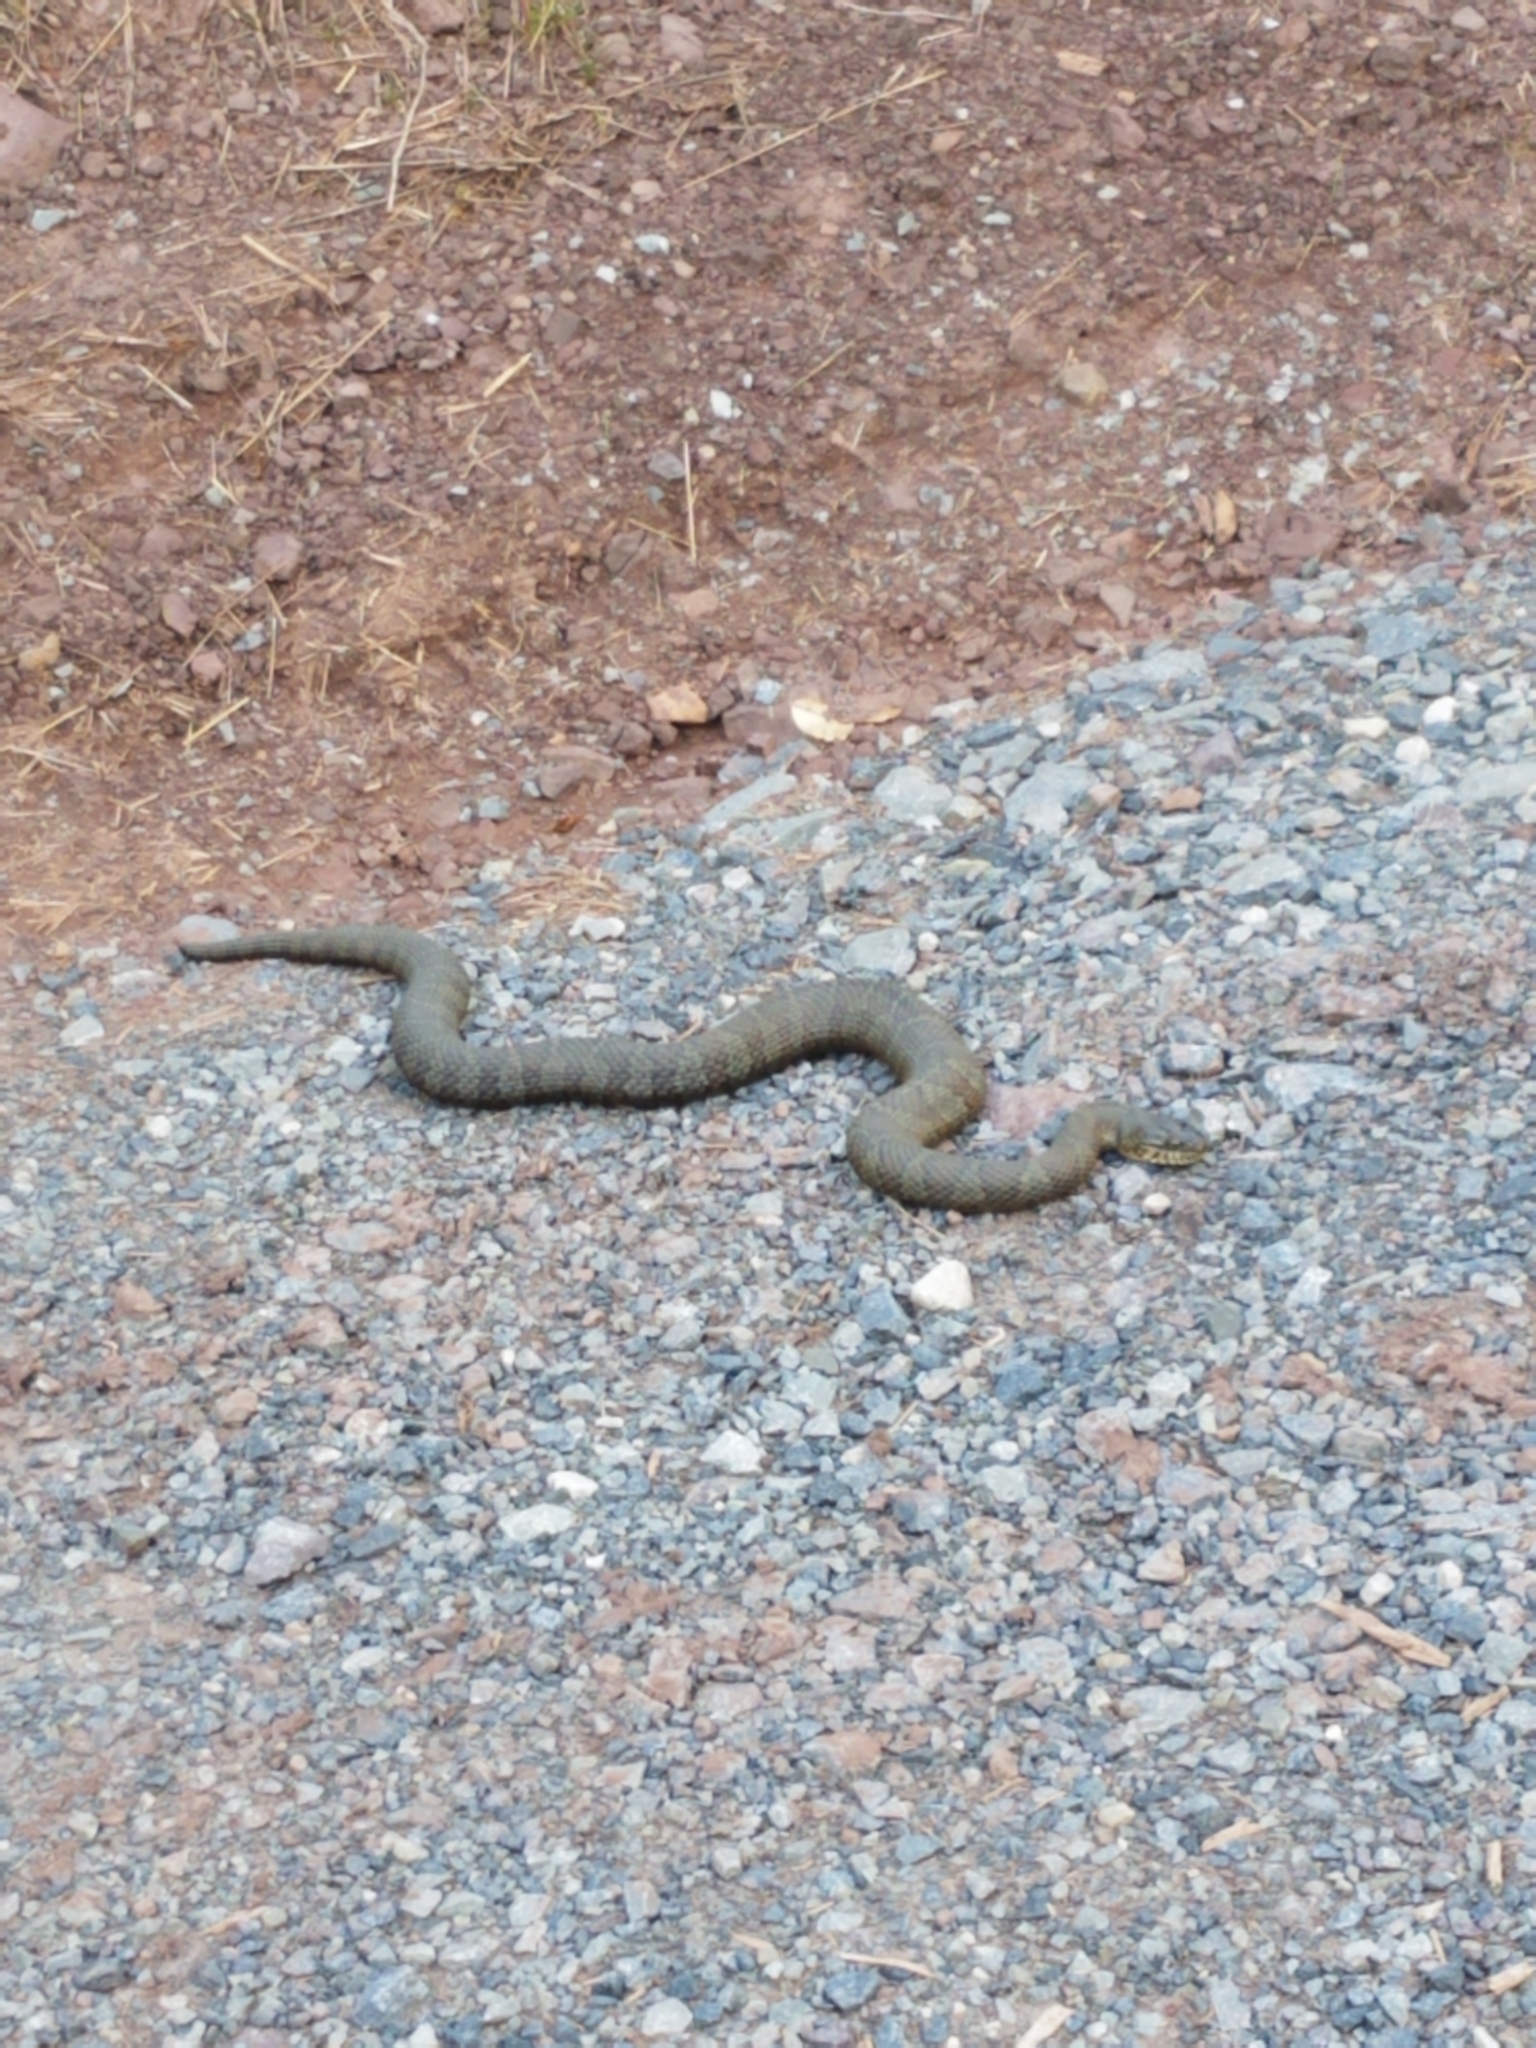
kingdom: Animalia
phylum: Chordata
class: Squamata
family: Colubridae
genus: Nerodia
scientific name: Nerodia sipedon
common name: Northern water snake
